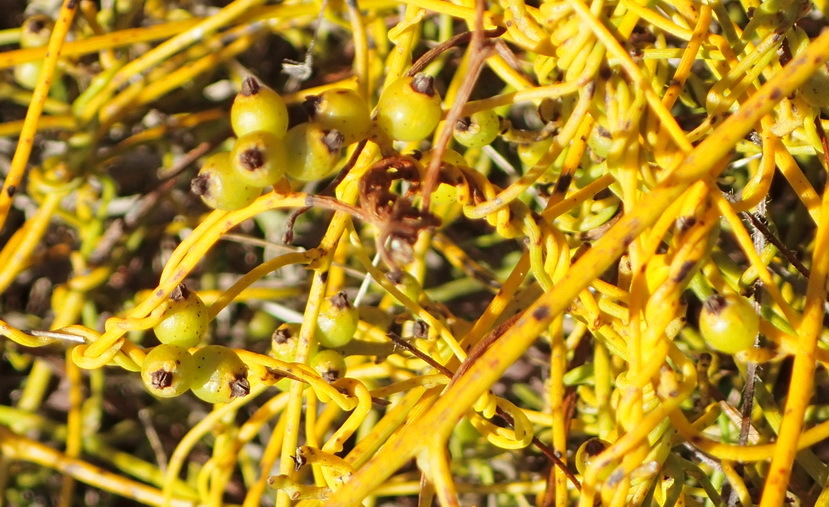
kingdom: Plantae
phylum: Tracheophyta
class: Magnoliopsida
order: Laurales
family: Lauraceae
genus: Cassytha
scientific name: Cassytha ciliolata
